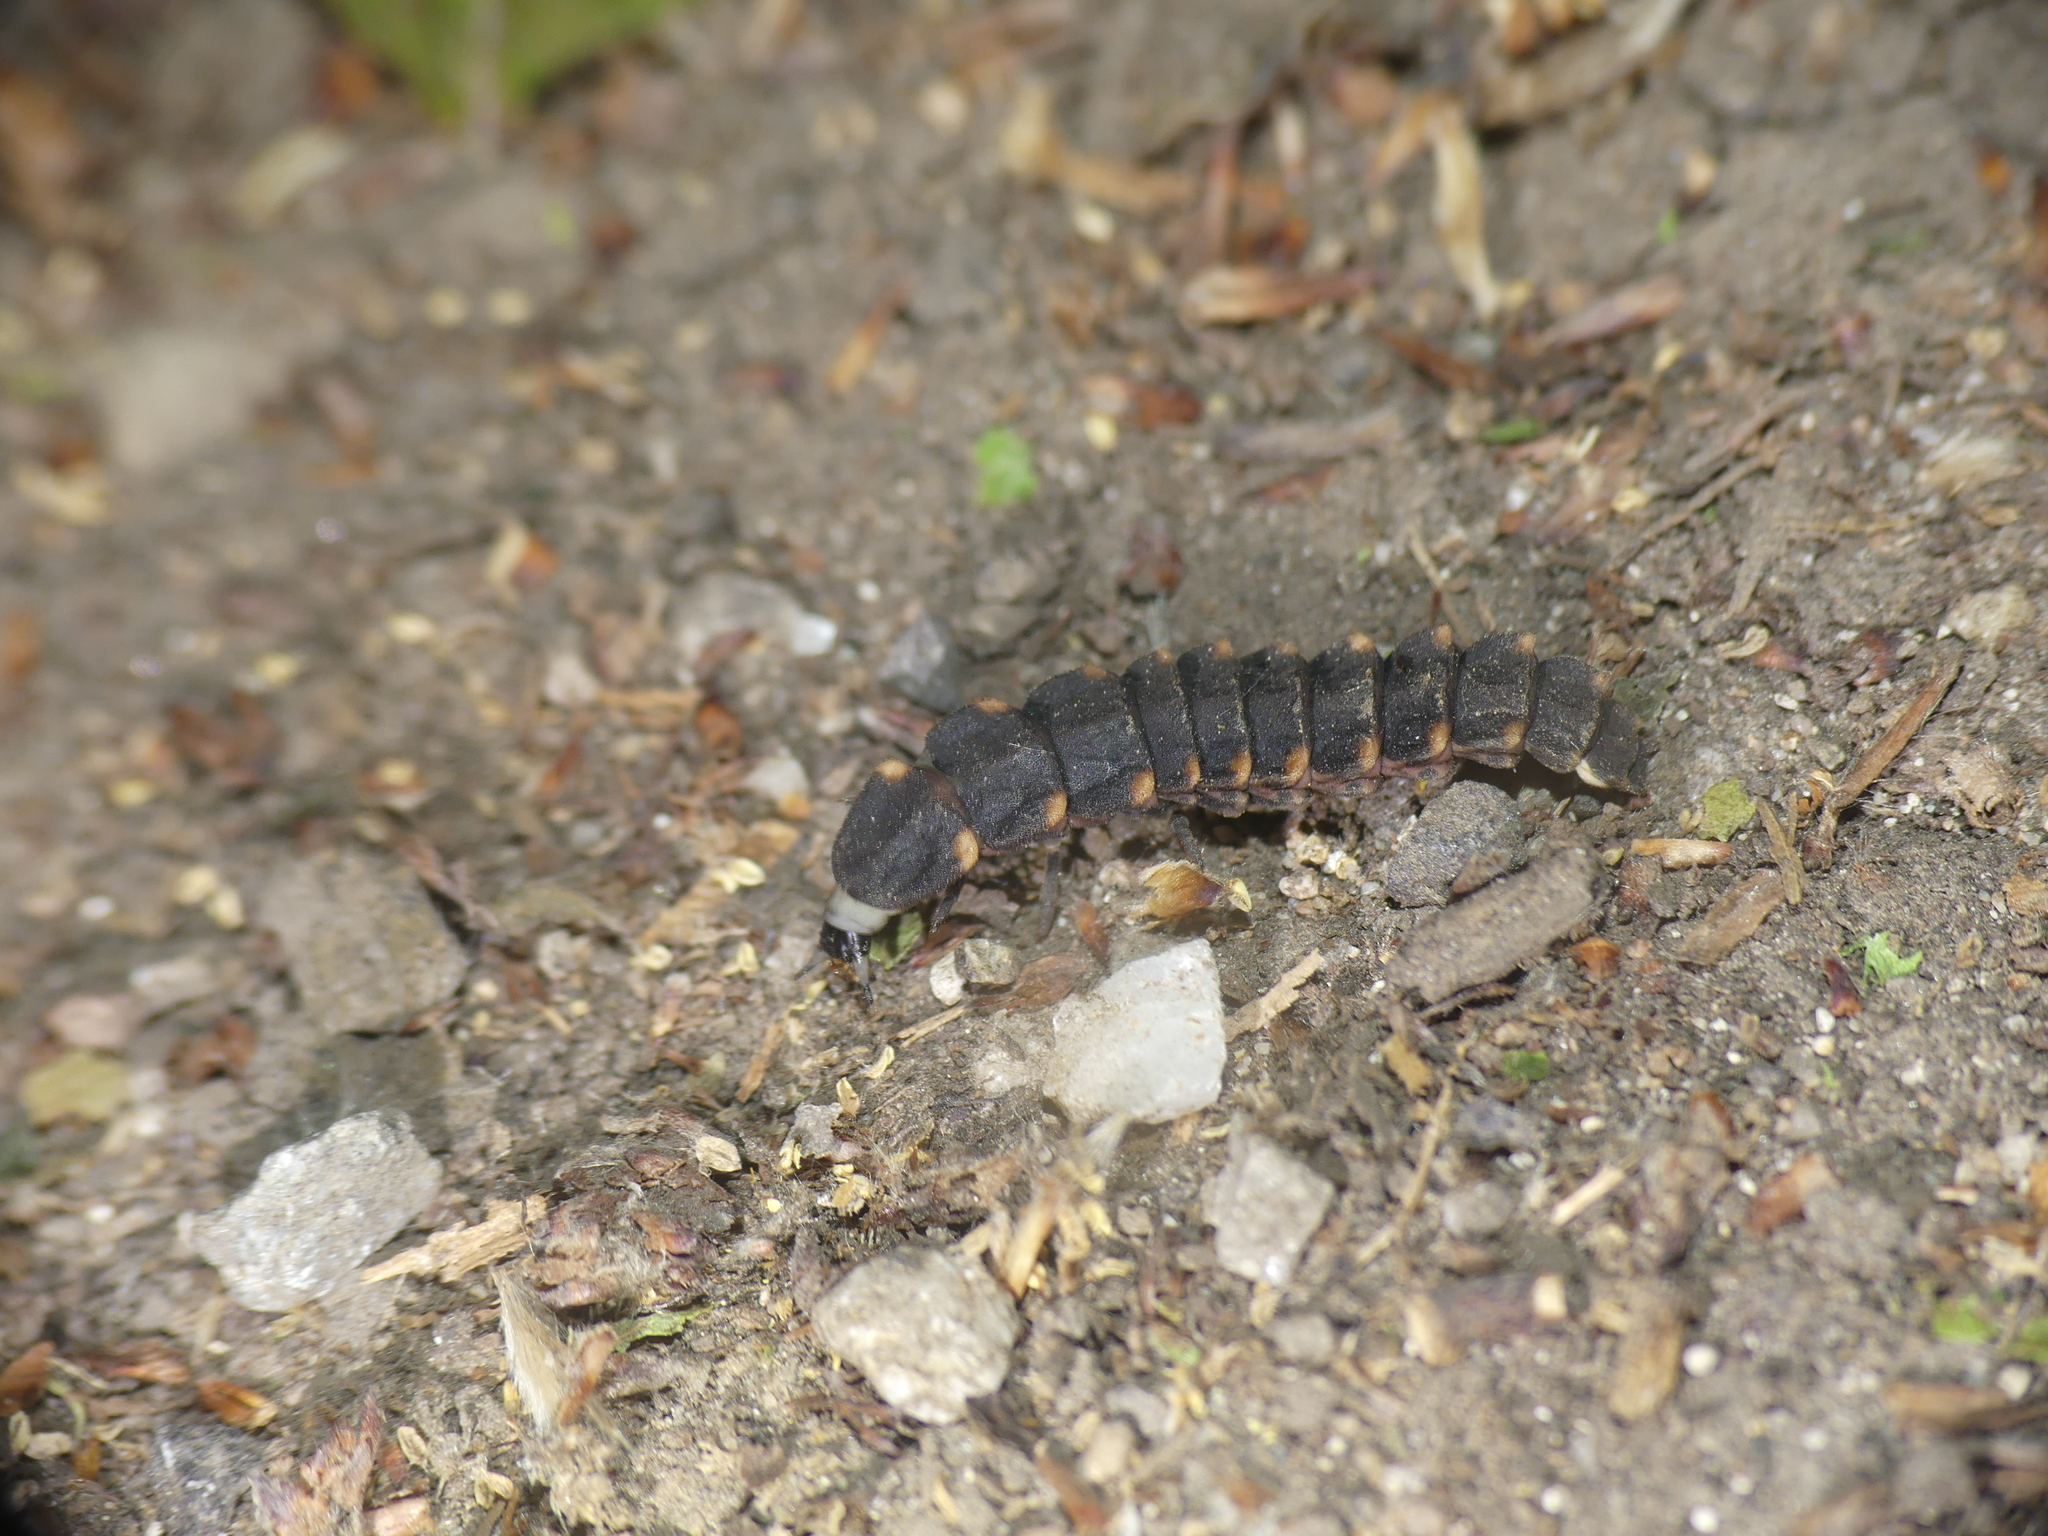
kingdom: Animalia
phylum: Arthropoda
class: Insecta
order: Coleoptera
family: Lampyridae
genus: Lampyris
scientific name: Lampyris noctiluca
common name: Glow-worm
